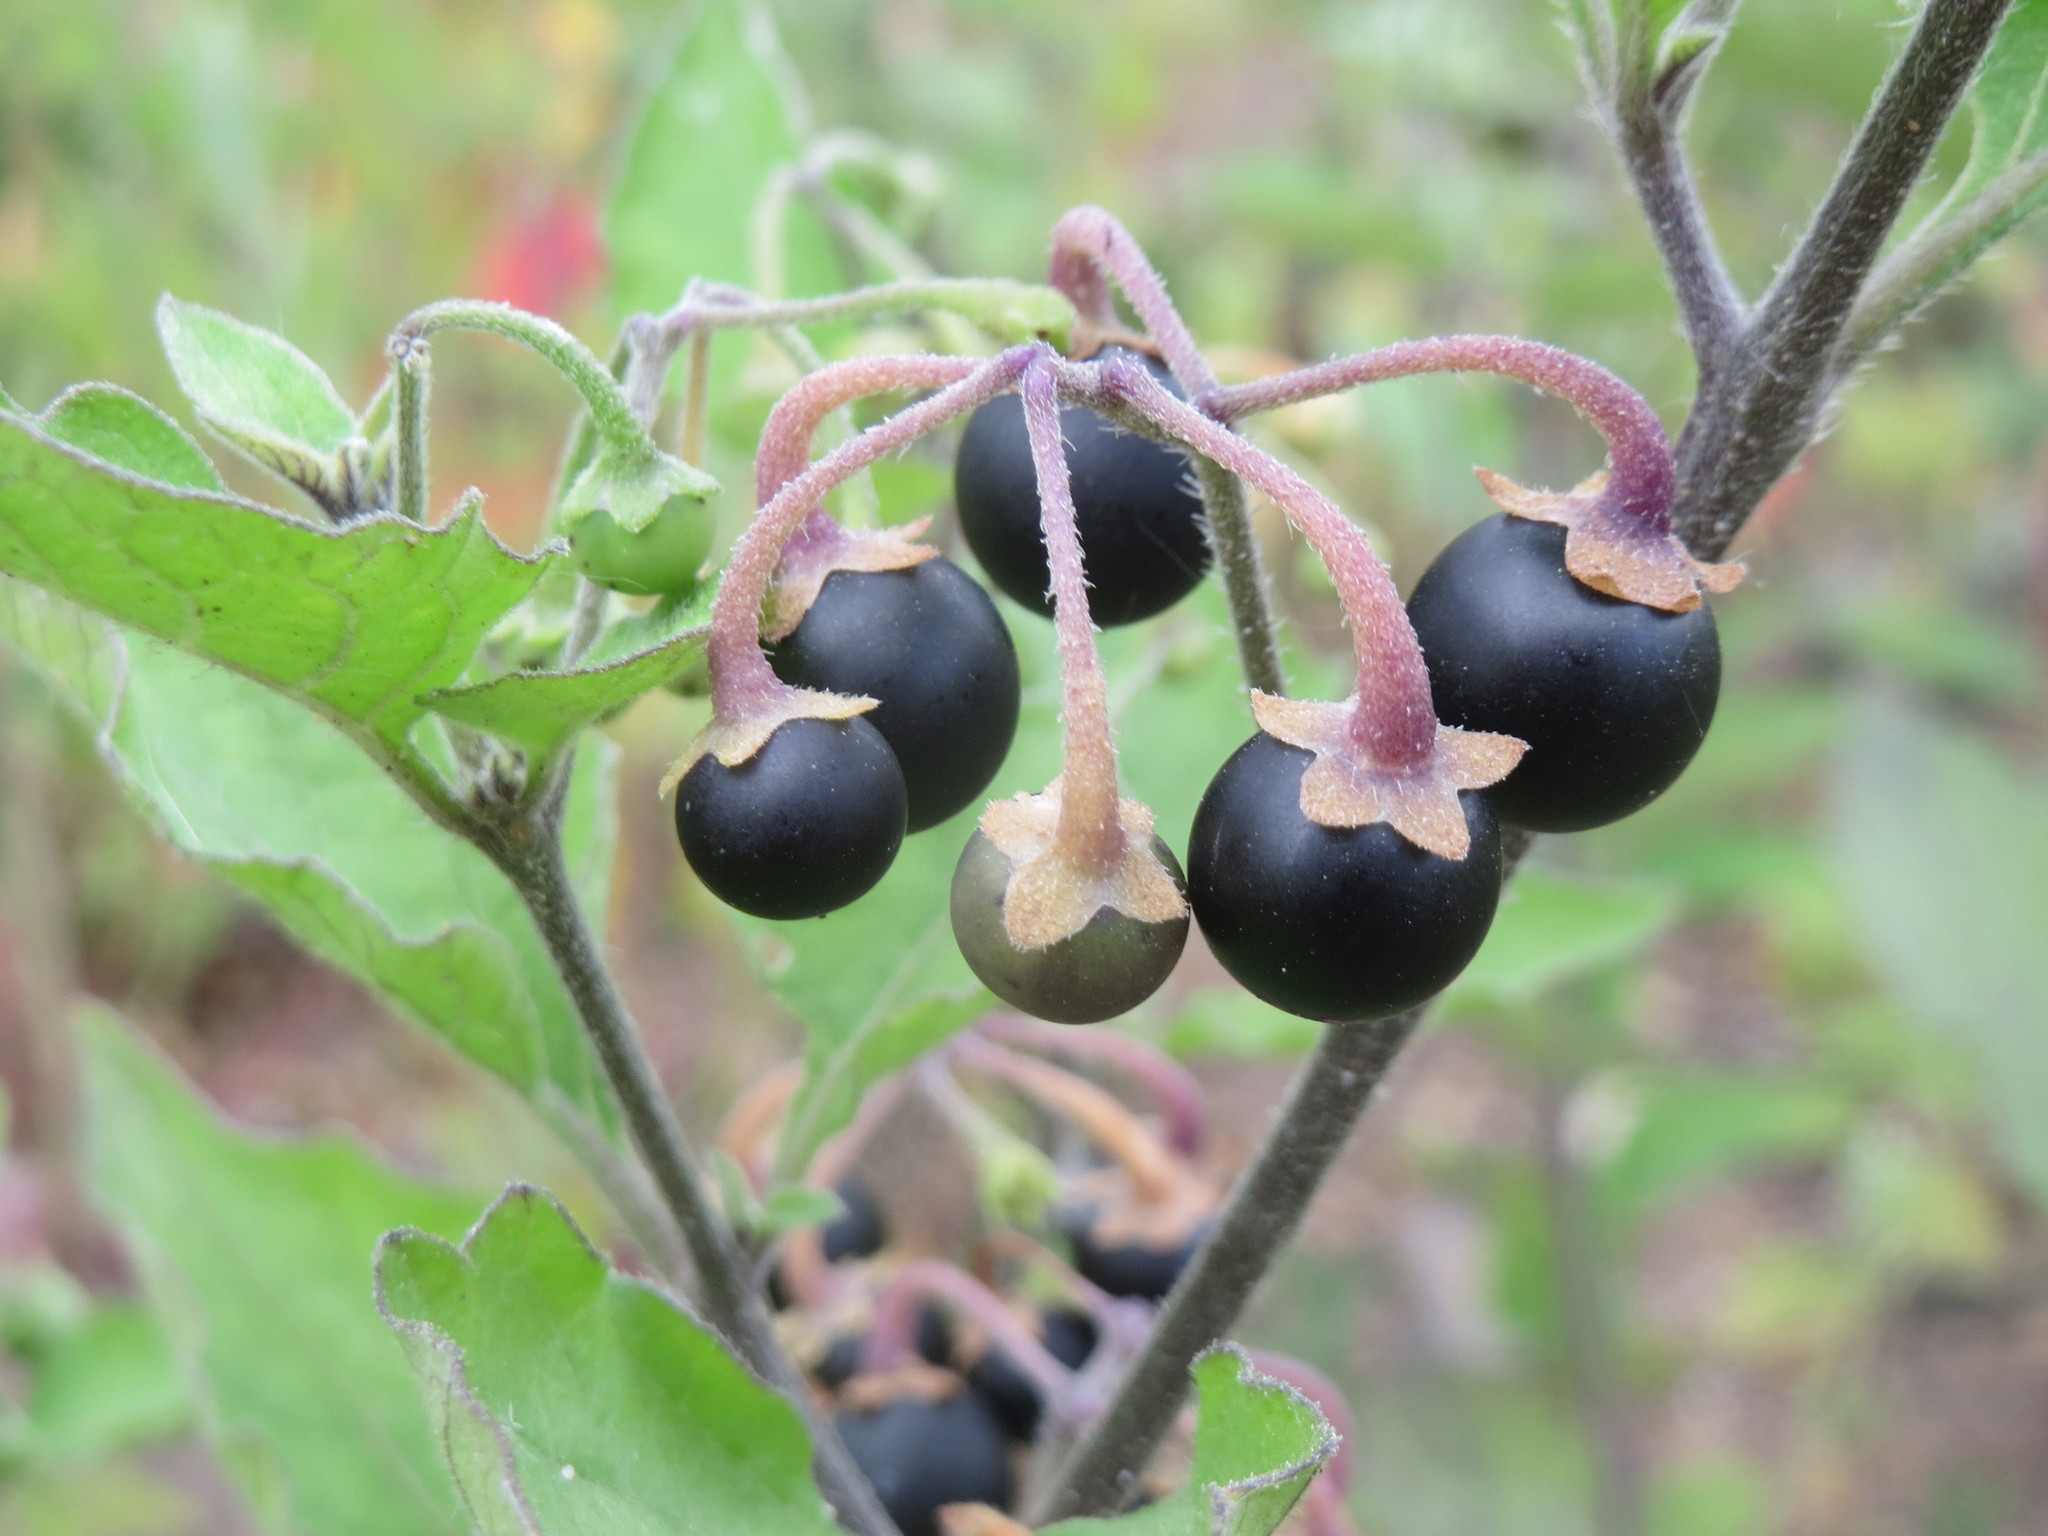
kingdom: Plantae
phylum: Tracheophyta
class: Magnoliopsida
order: Solanales
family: Solanaceae
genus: Solanum
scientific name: Solanum decipiens
